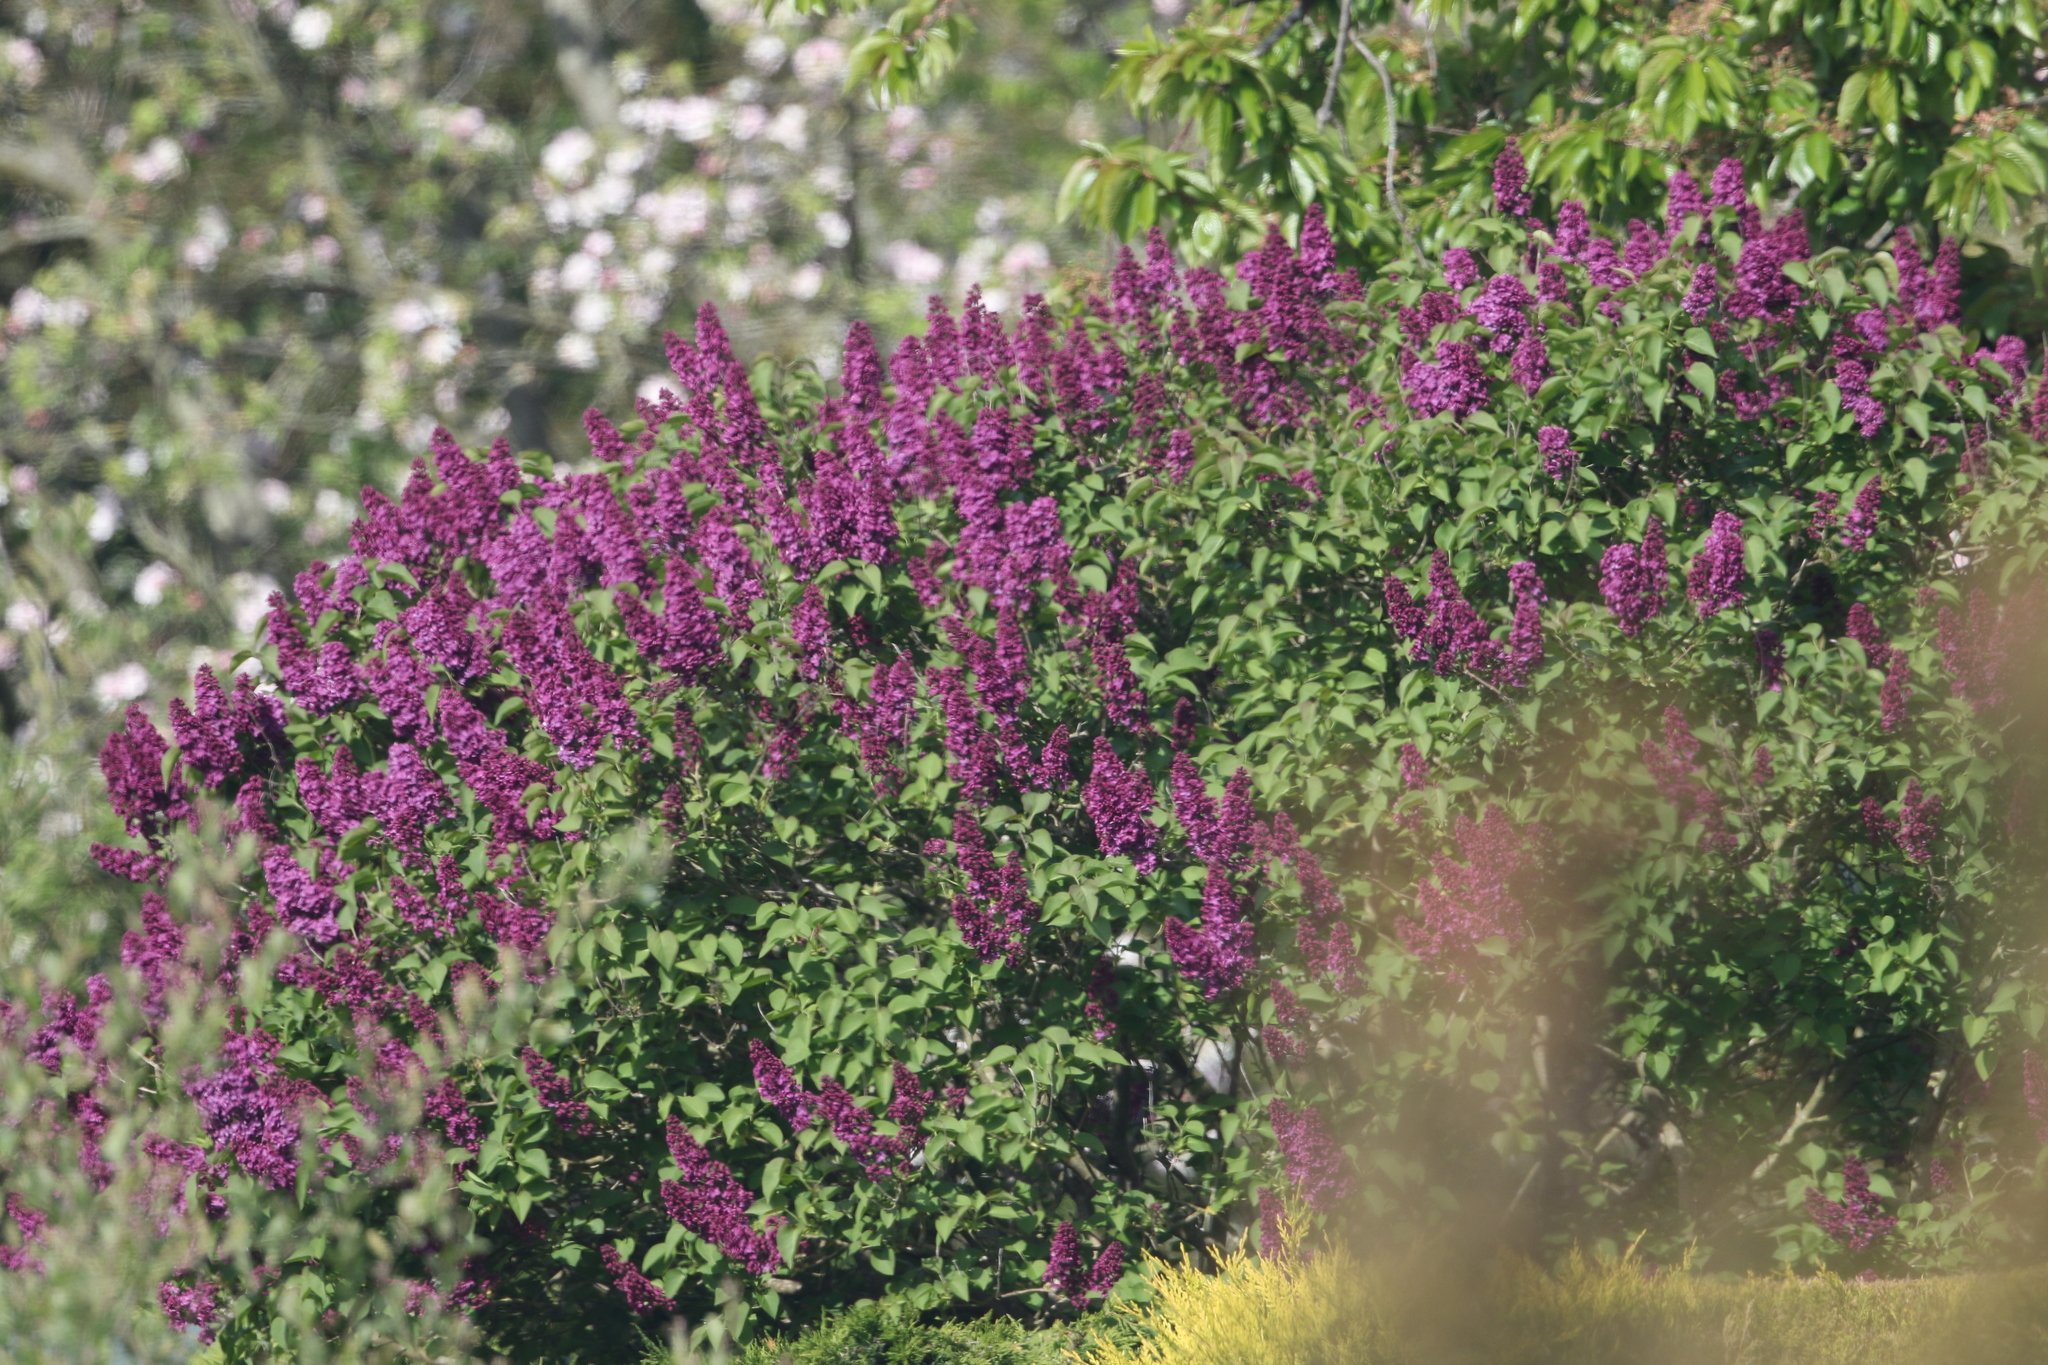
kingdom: Plantae
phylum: Tracheophyta
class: Magnoliopsida
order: Lamiales
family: Oleaceae
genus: Syringa
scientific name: Syringa vulgaris
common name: Common lilac
